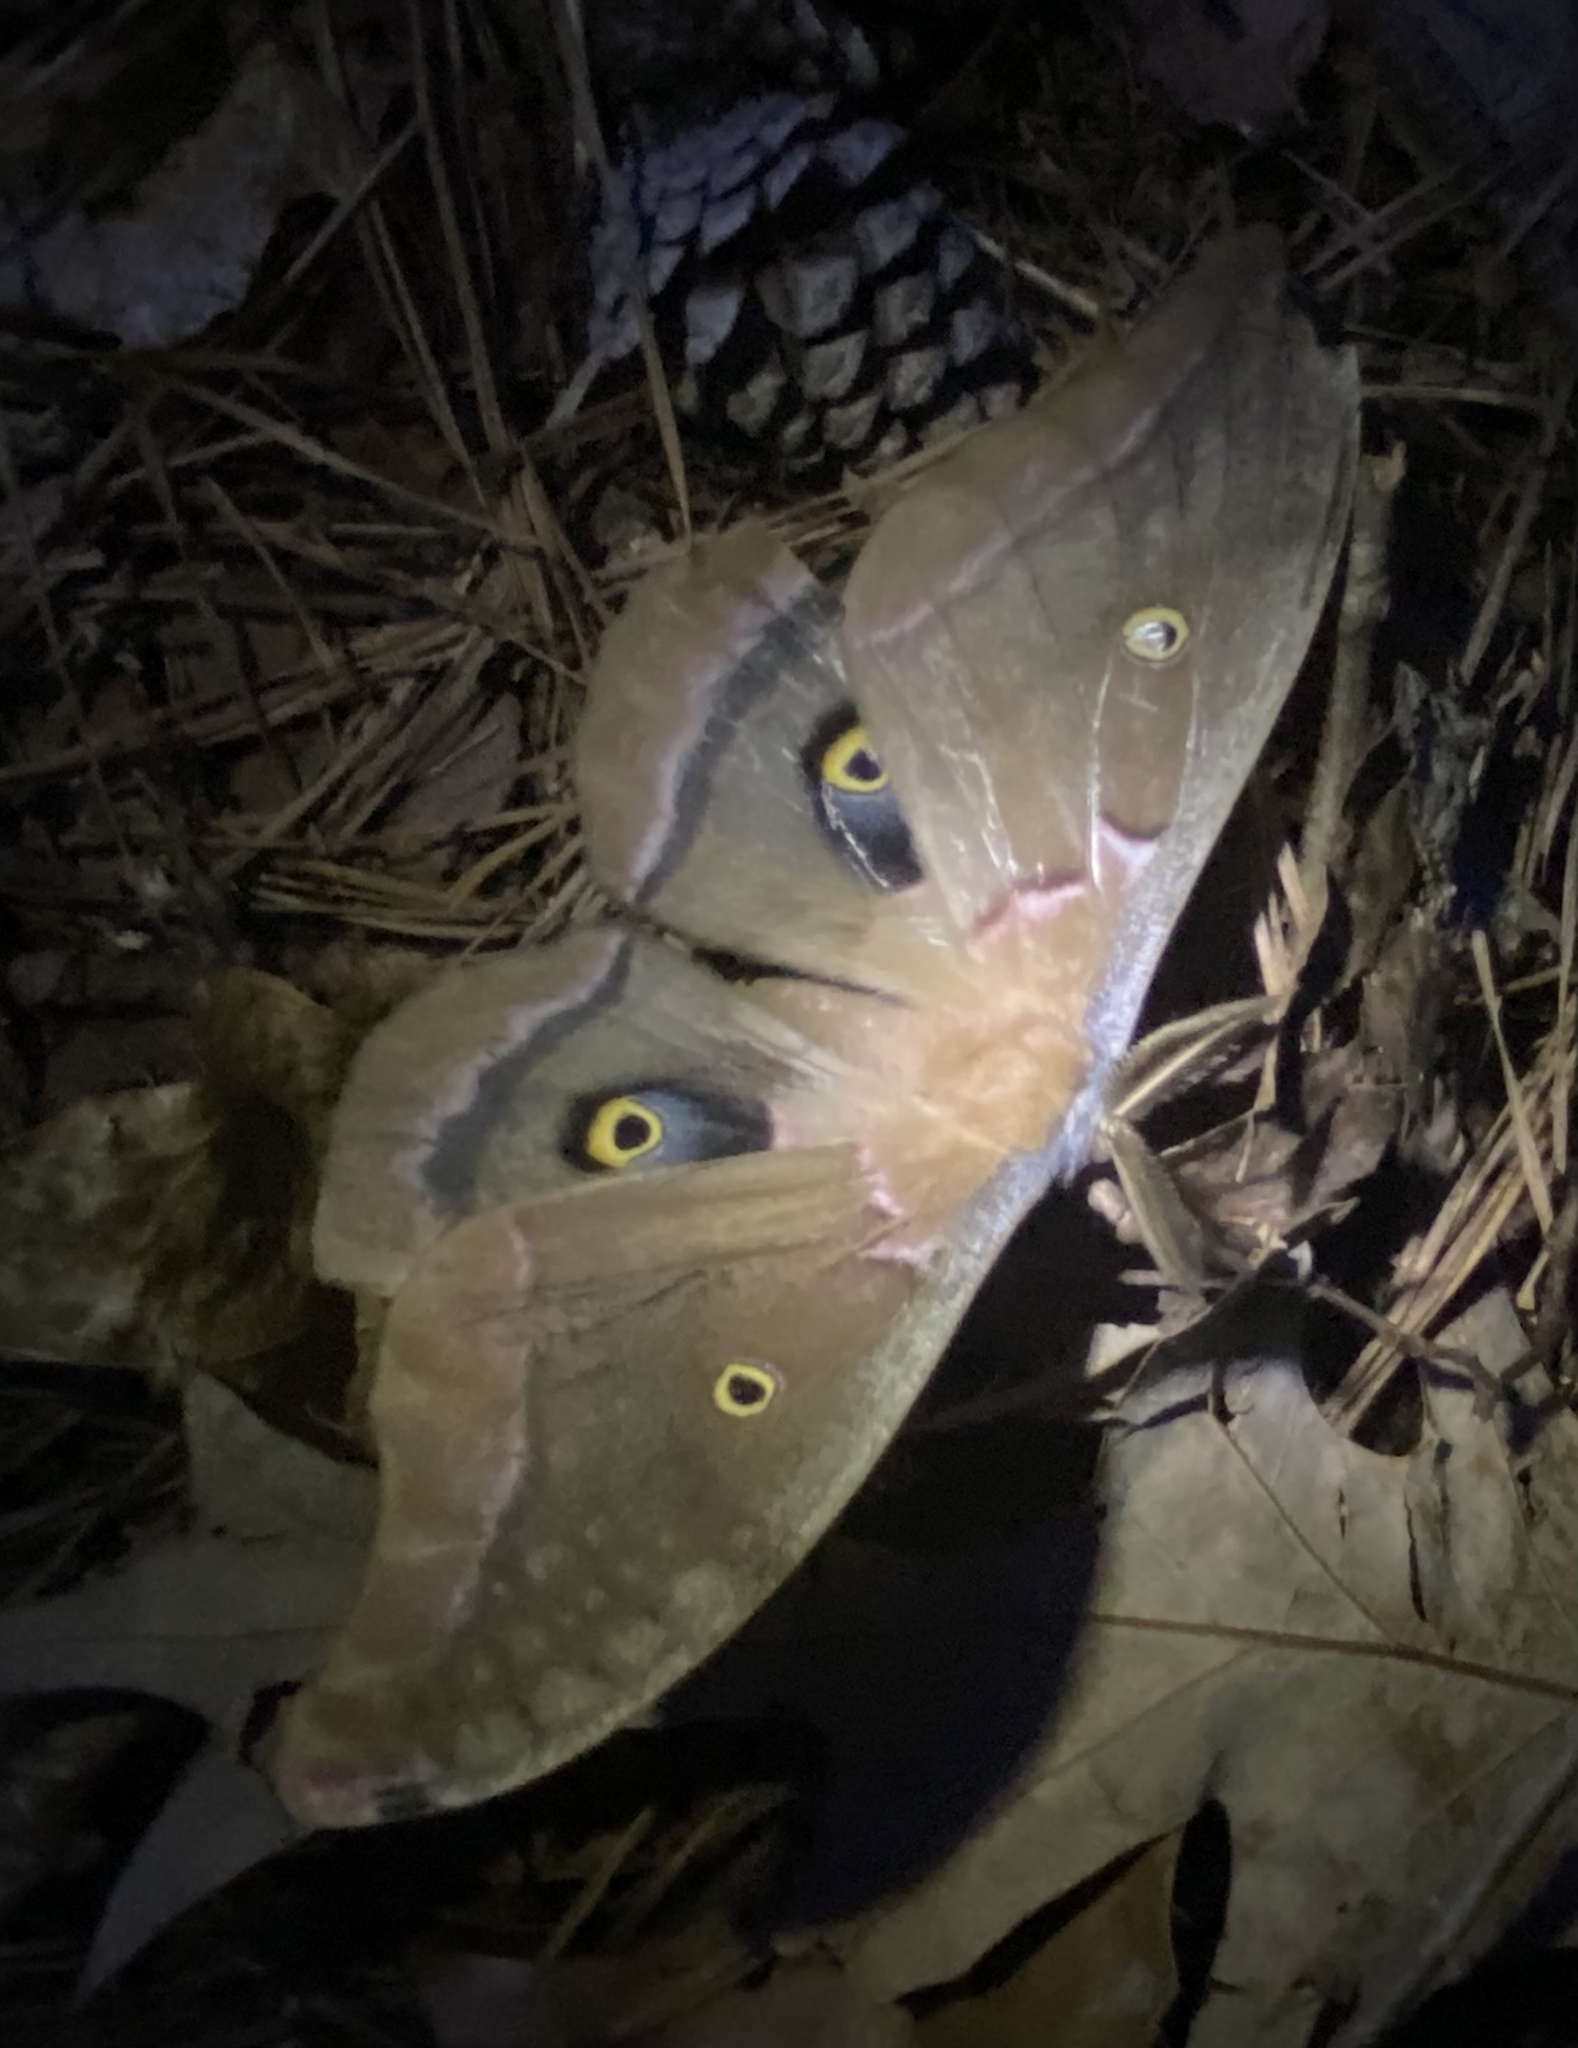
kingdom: Animalia
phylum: Arthropoda
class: Insecta
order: Lepidoptera
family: Saturniidae
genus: Antheraea
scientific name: Antheraea polyphemus
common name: Polyphemus moth
